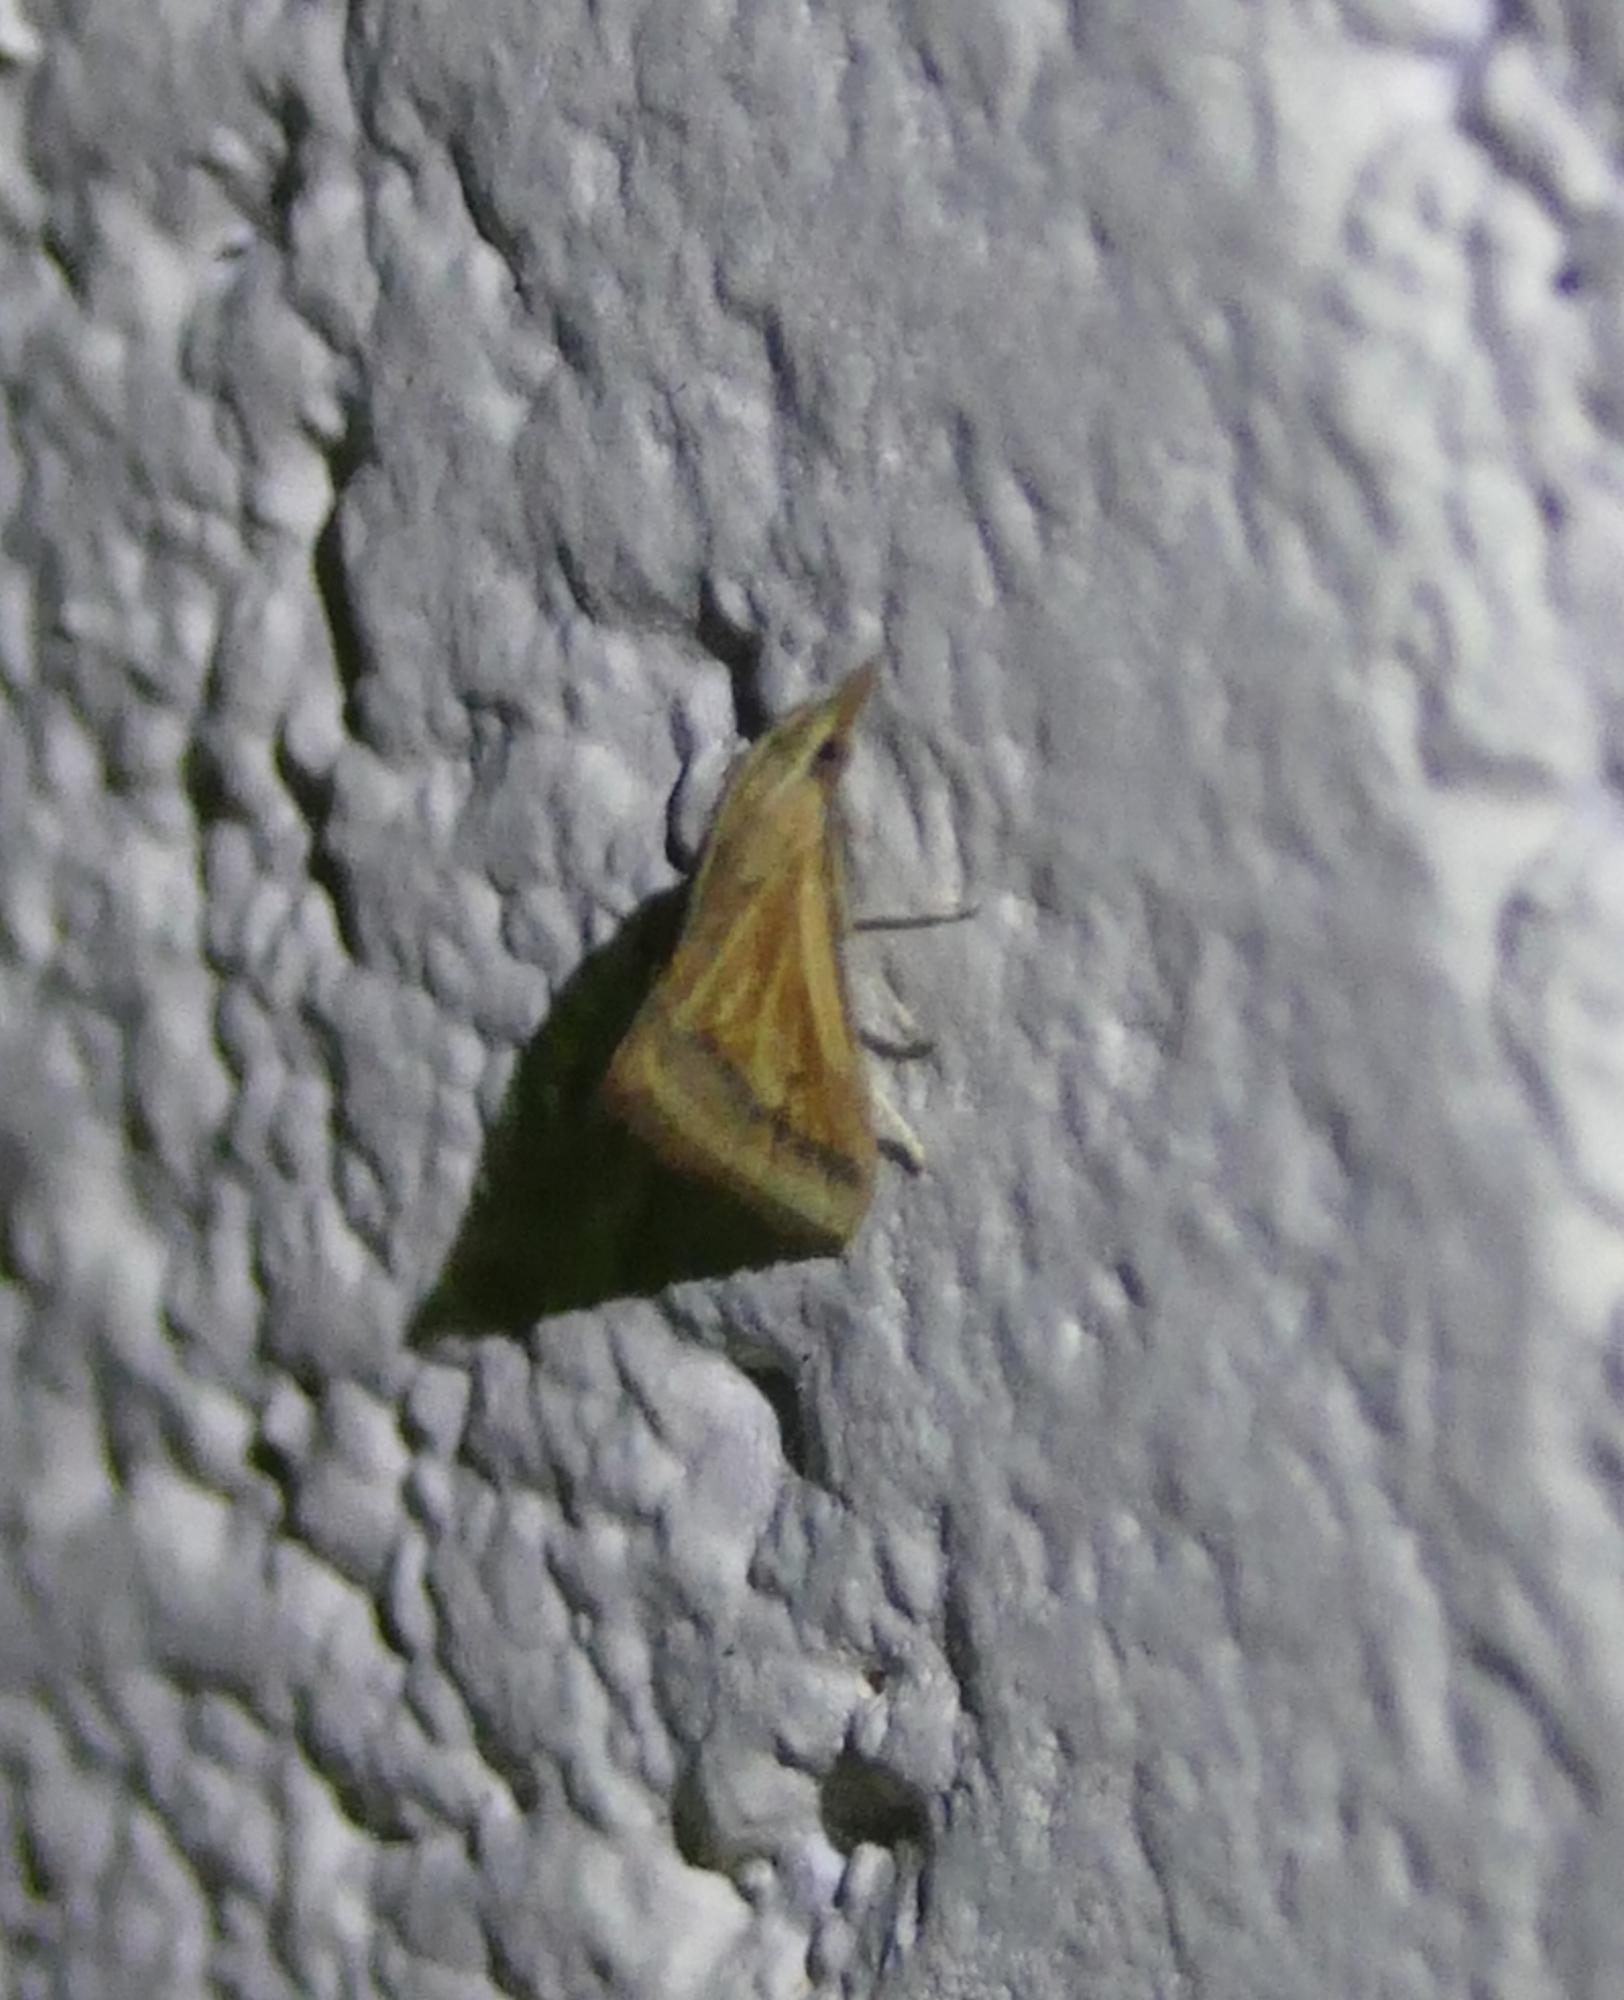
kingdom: Animalia
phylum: Arthropoda
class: Insecta
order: Lepidoptera
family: Crambidae
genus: Microtheoris
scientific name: Microtheoris ophionalis
